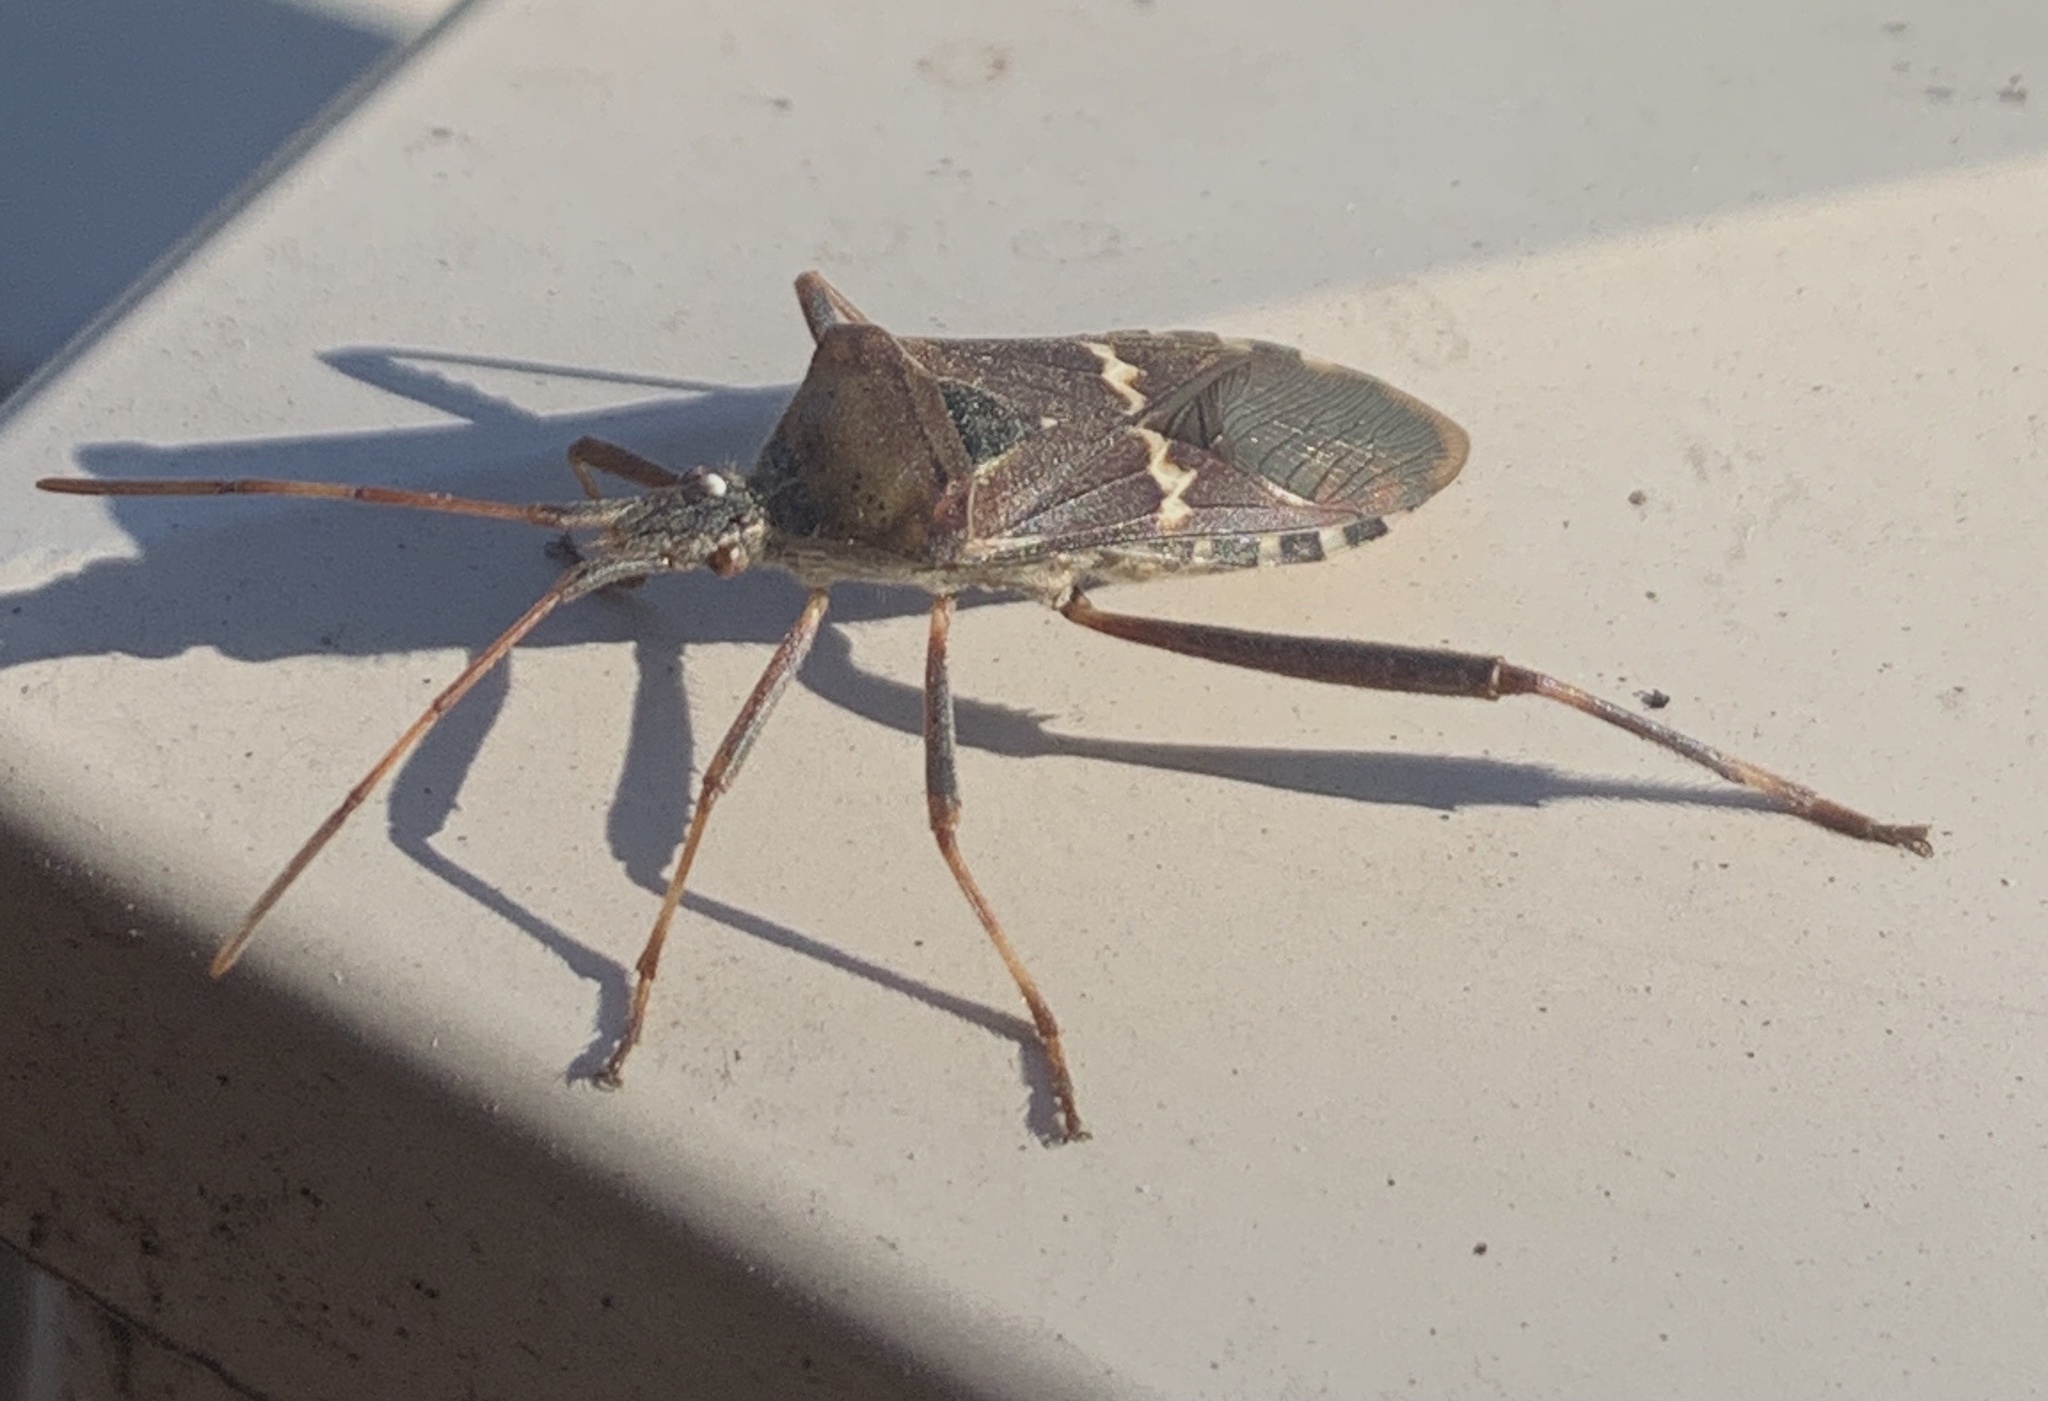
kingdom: Animalia
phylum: Arthropoda
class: Insecta
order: Hemiptera
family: Coreidae
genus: Leptoglossus
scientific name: Leptoglossus clypealis
